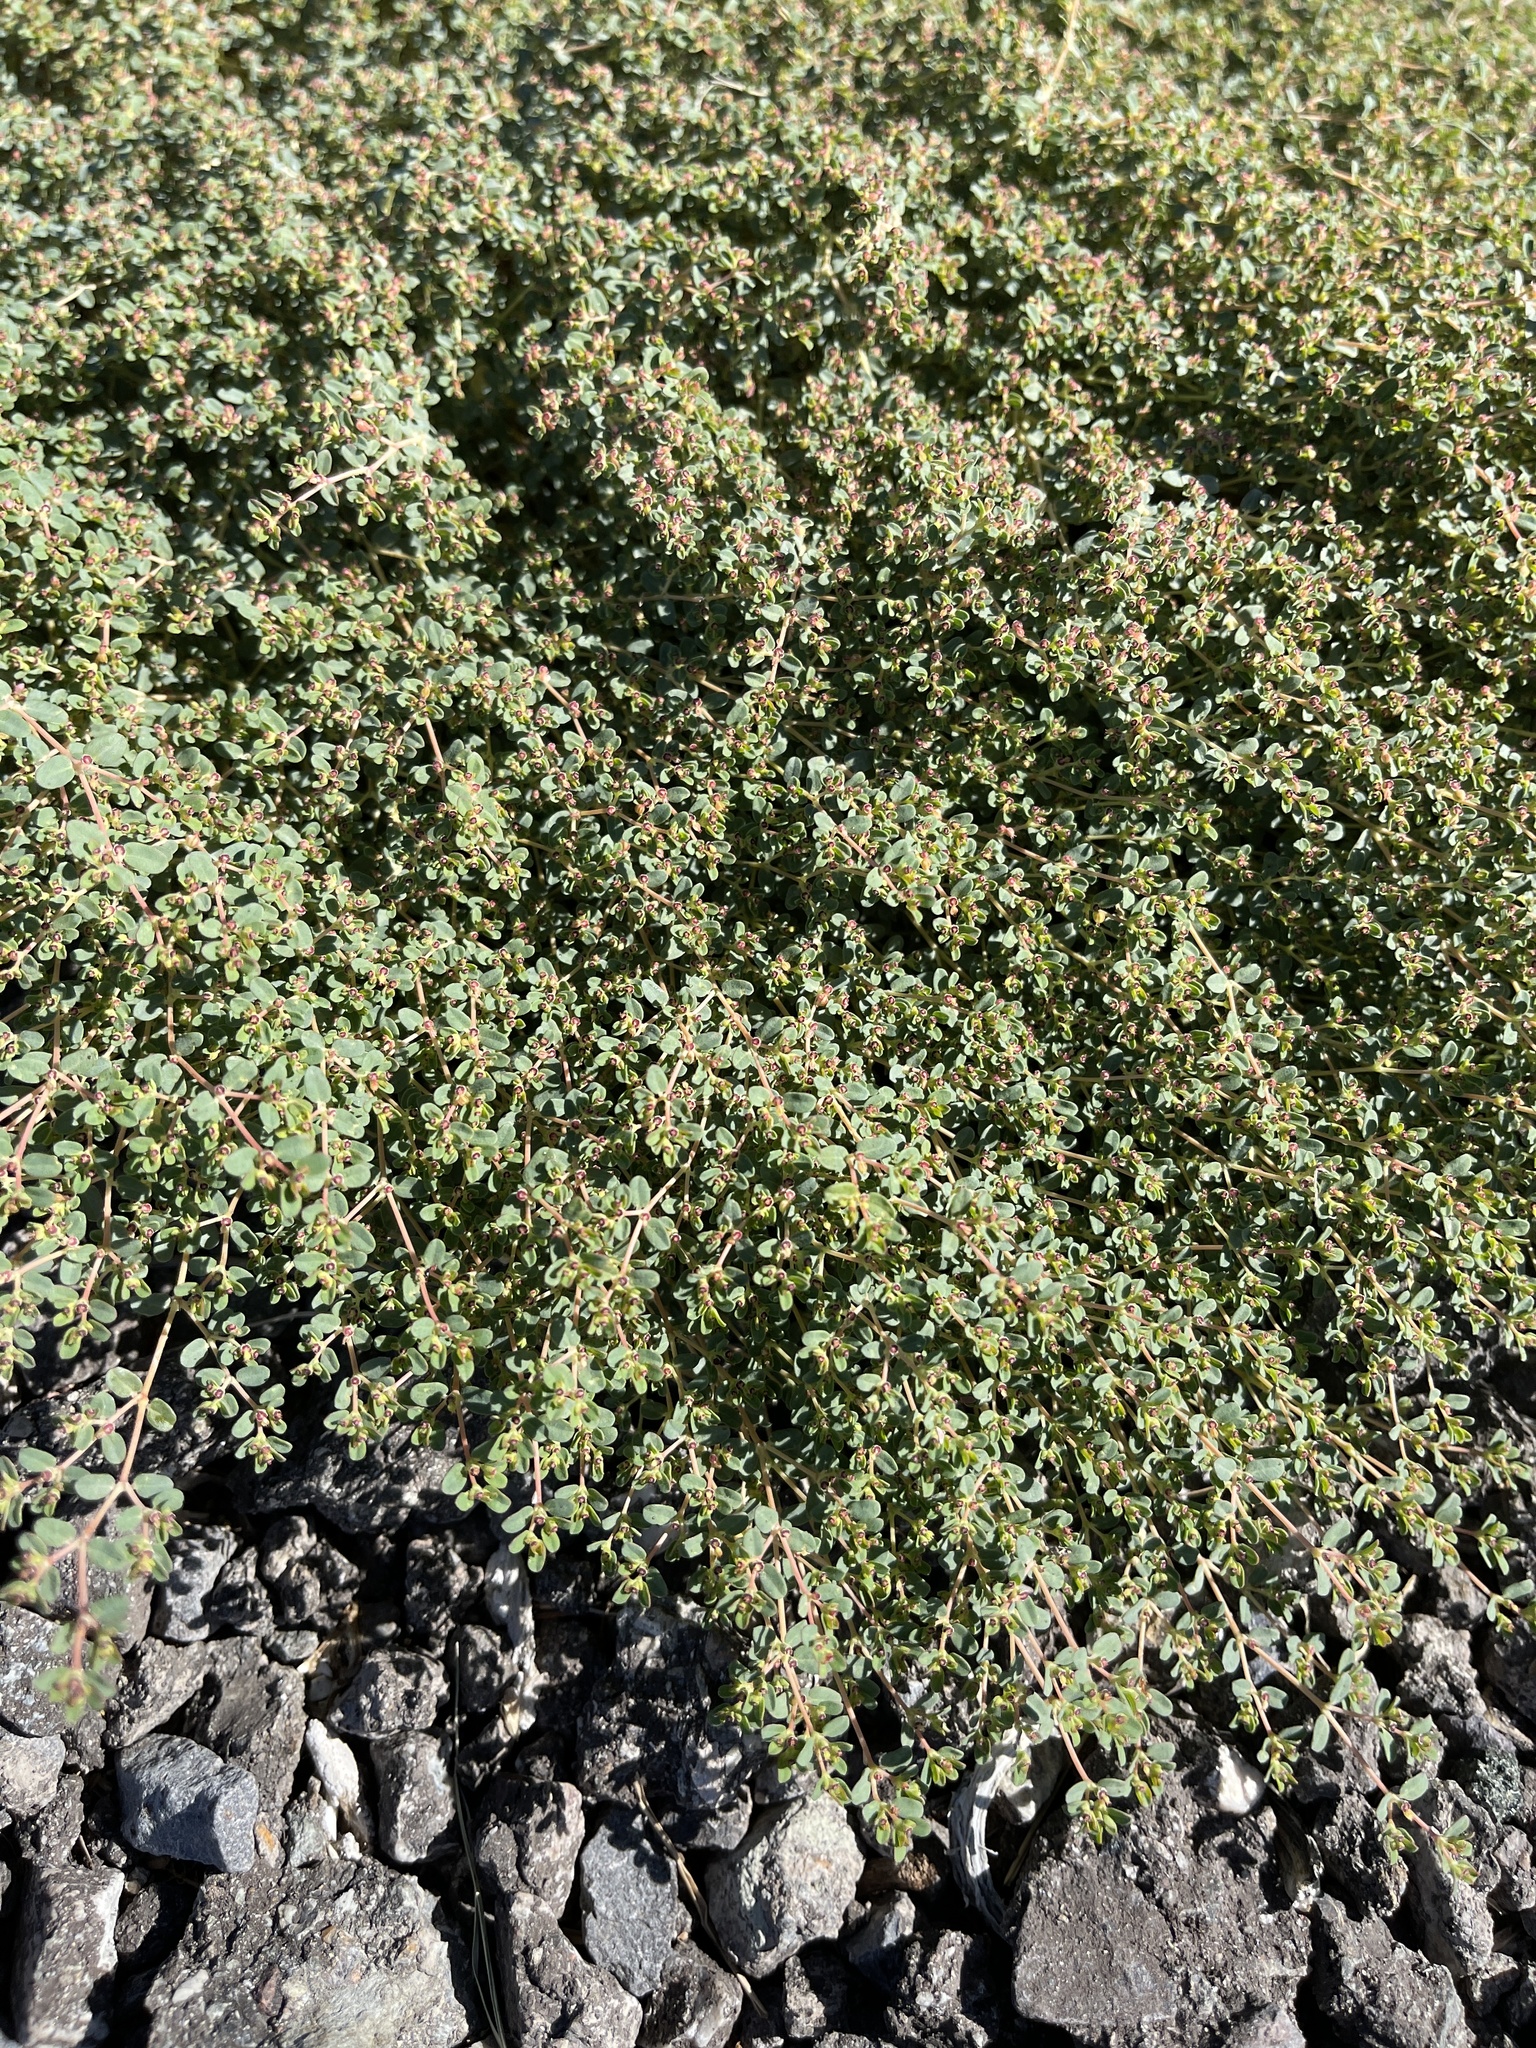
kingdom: Plantae
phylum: Tracheophyta
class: Magnoliopsida
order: Malpighiales
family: Euphorbiaceae
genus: Euphorbia
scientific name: Euphorbia polycarpa
